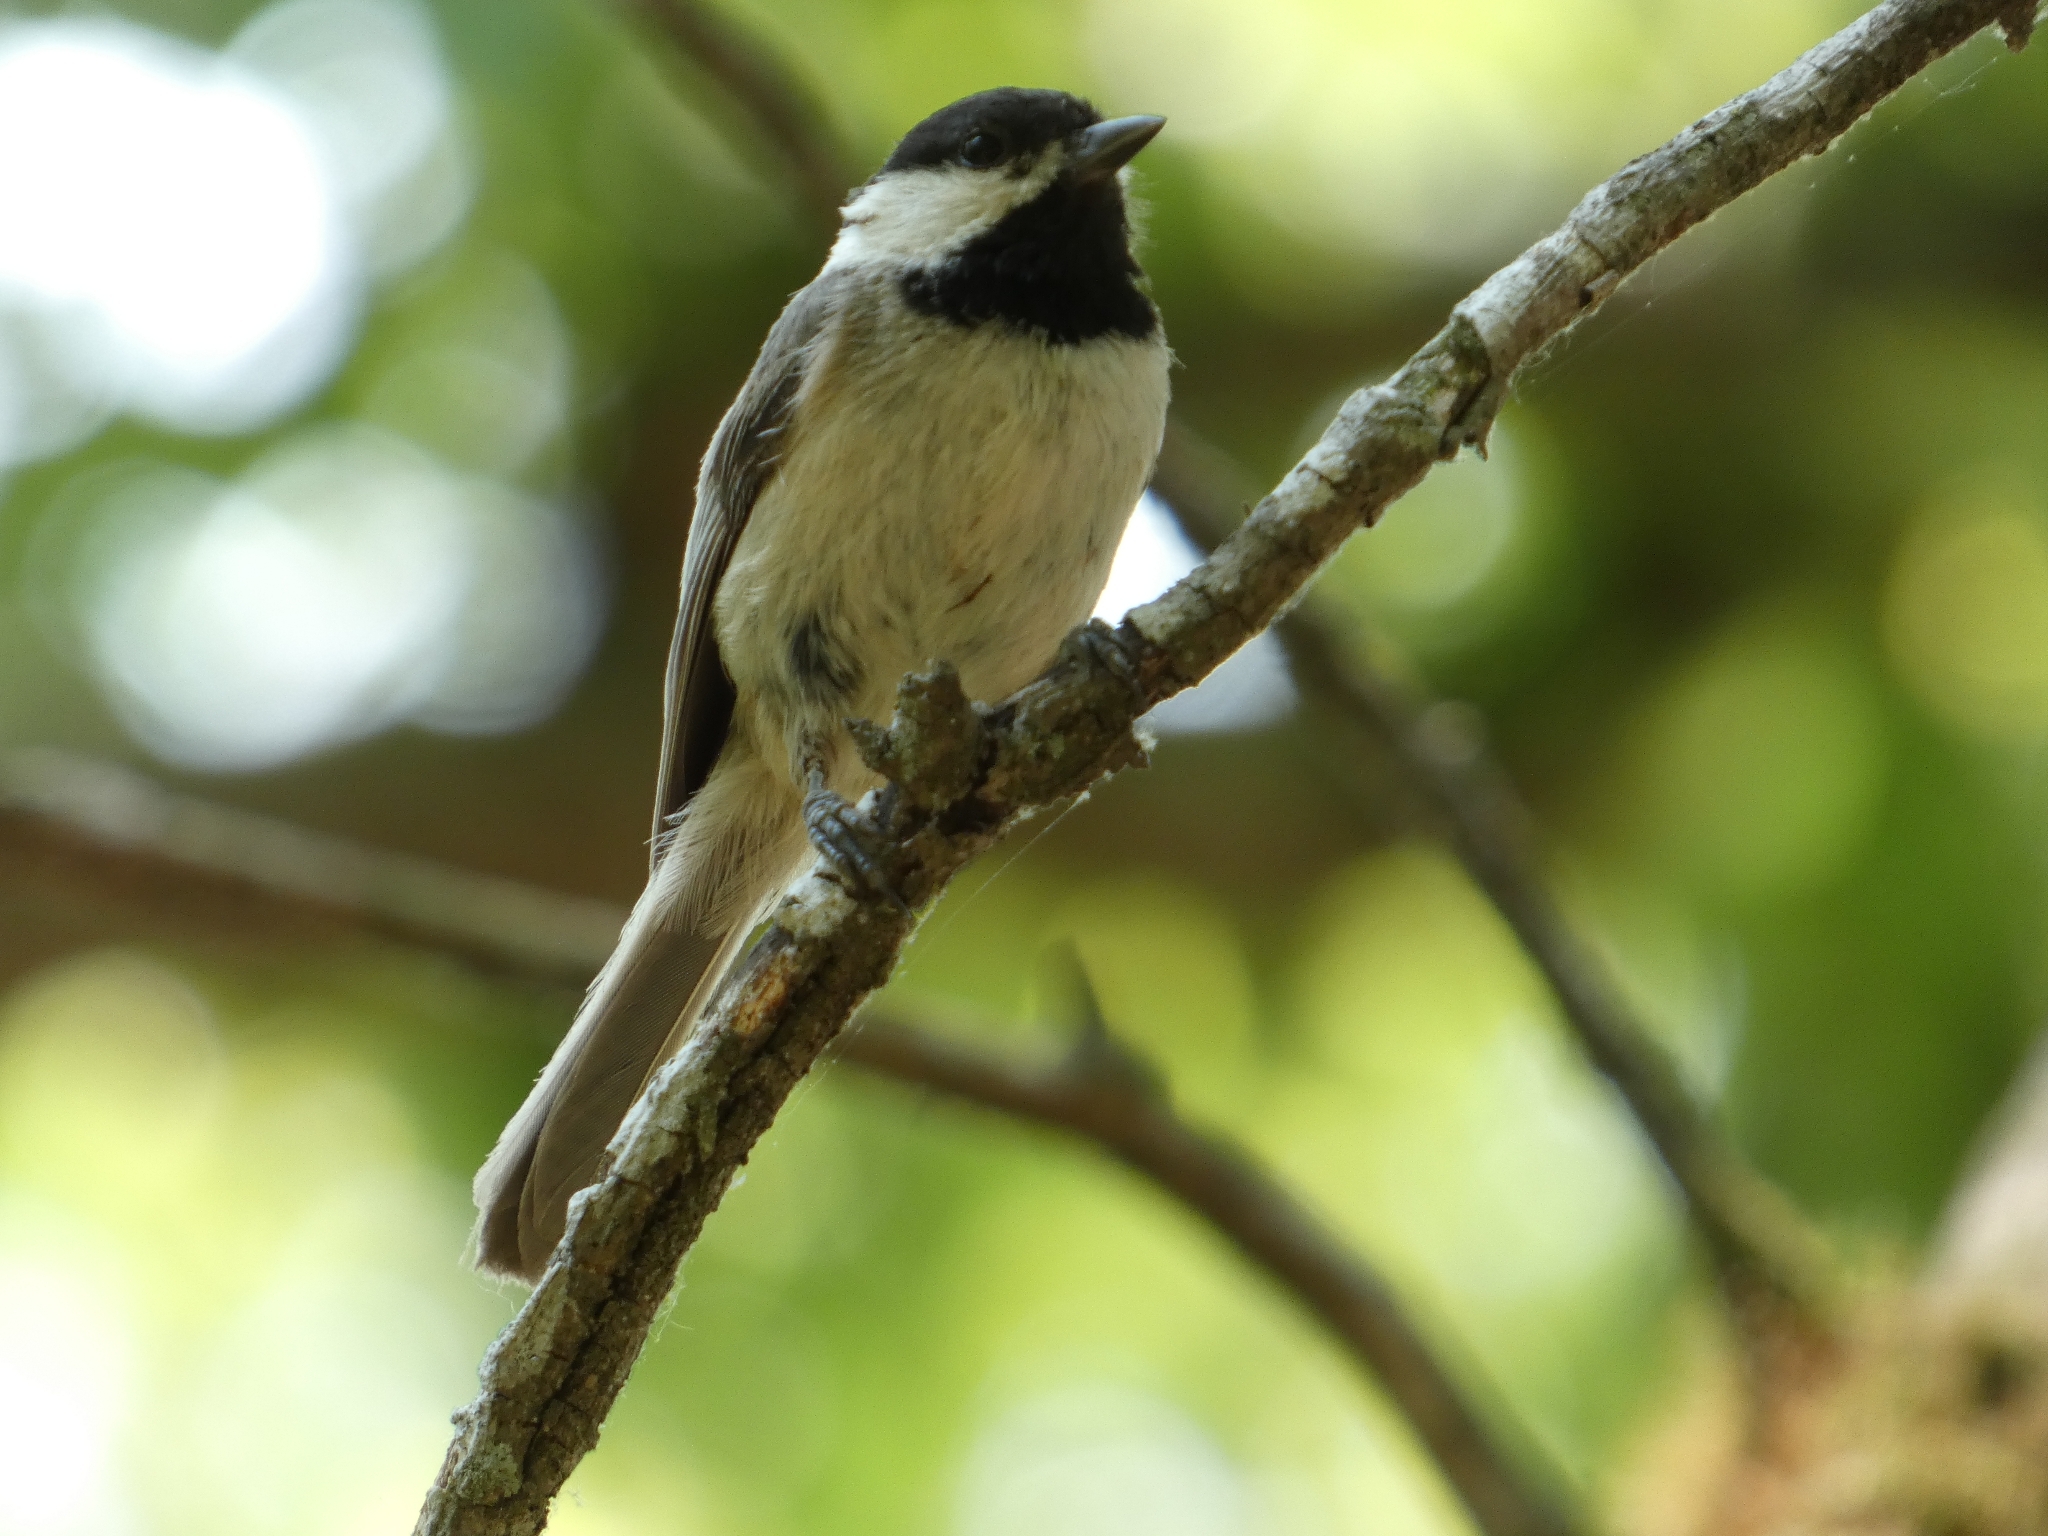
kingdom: Animalia
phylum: Chordata
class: Aves
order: Passeriformes
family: Paridae
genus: Poecile
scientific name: Poecile
